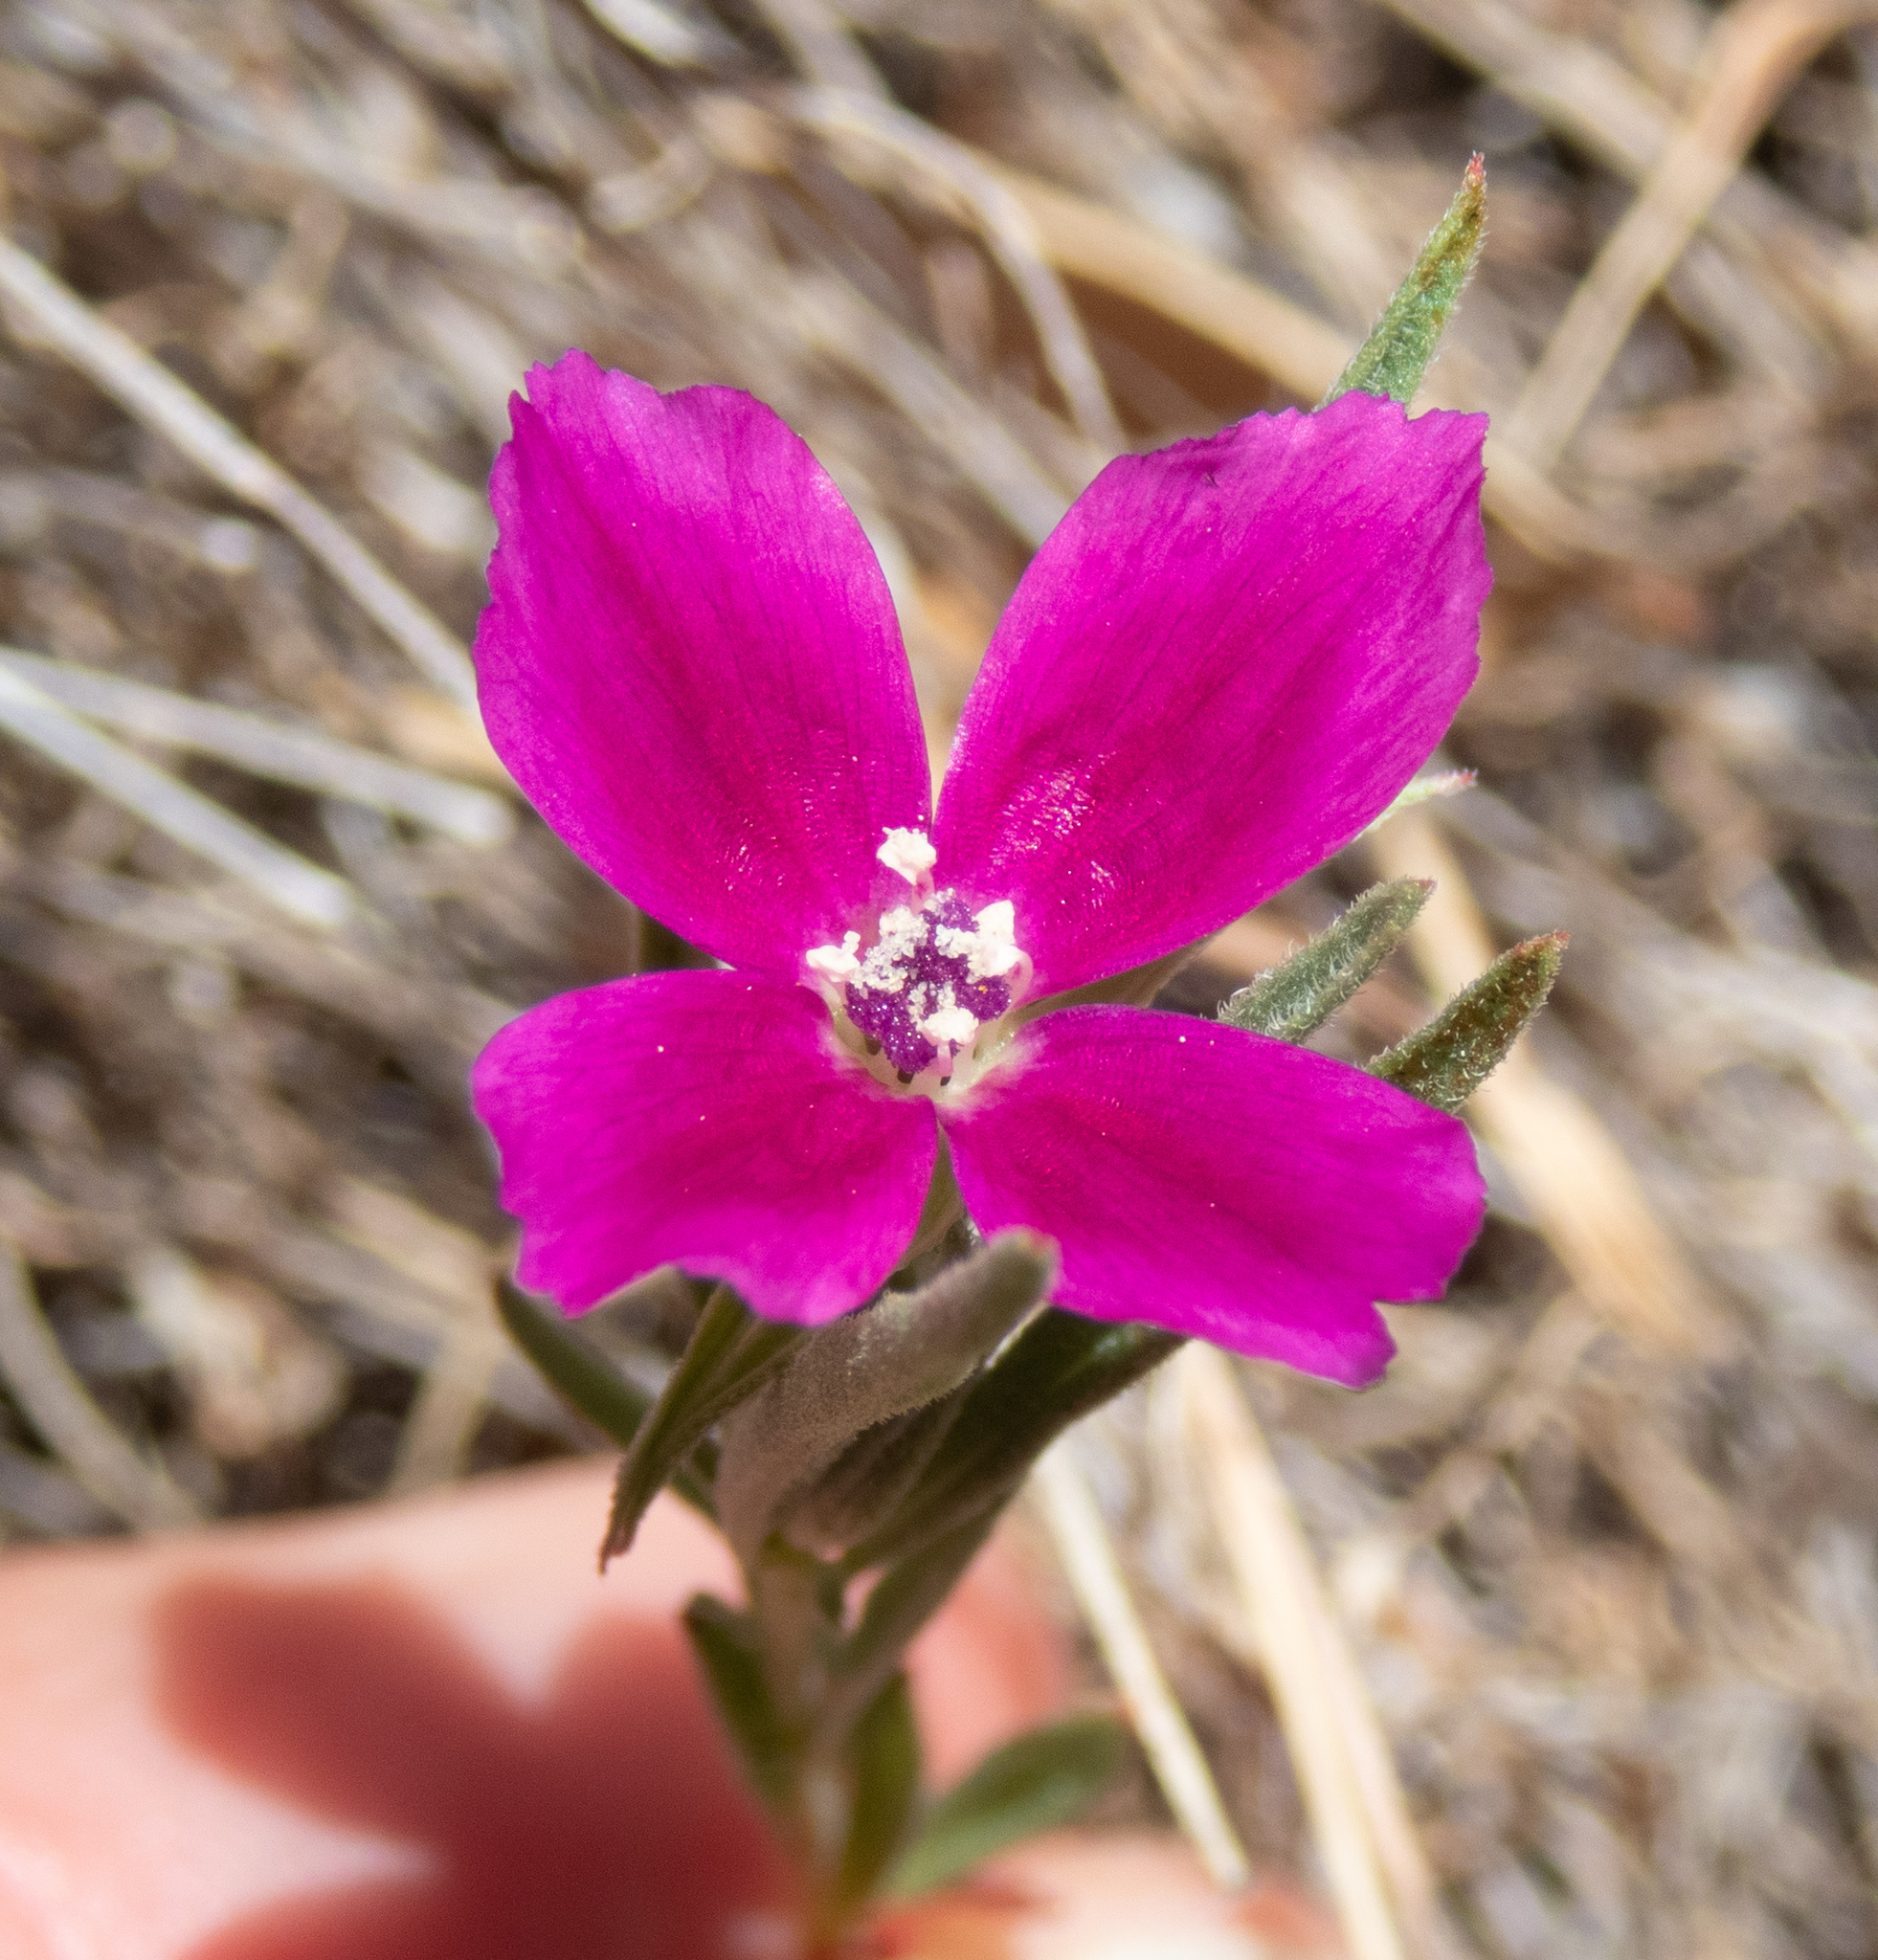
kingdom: Plantae
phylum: Tracheophyta
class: Magnoliopsida
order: Myrtales
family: Onagraceae
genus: Clarkia
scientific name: Clarkia purpurea
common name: Purple clarkia
